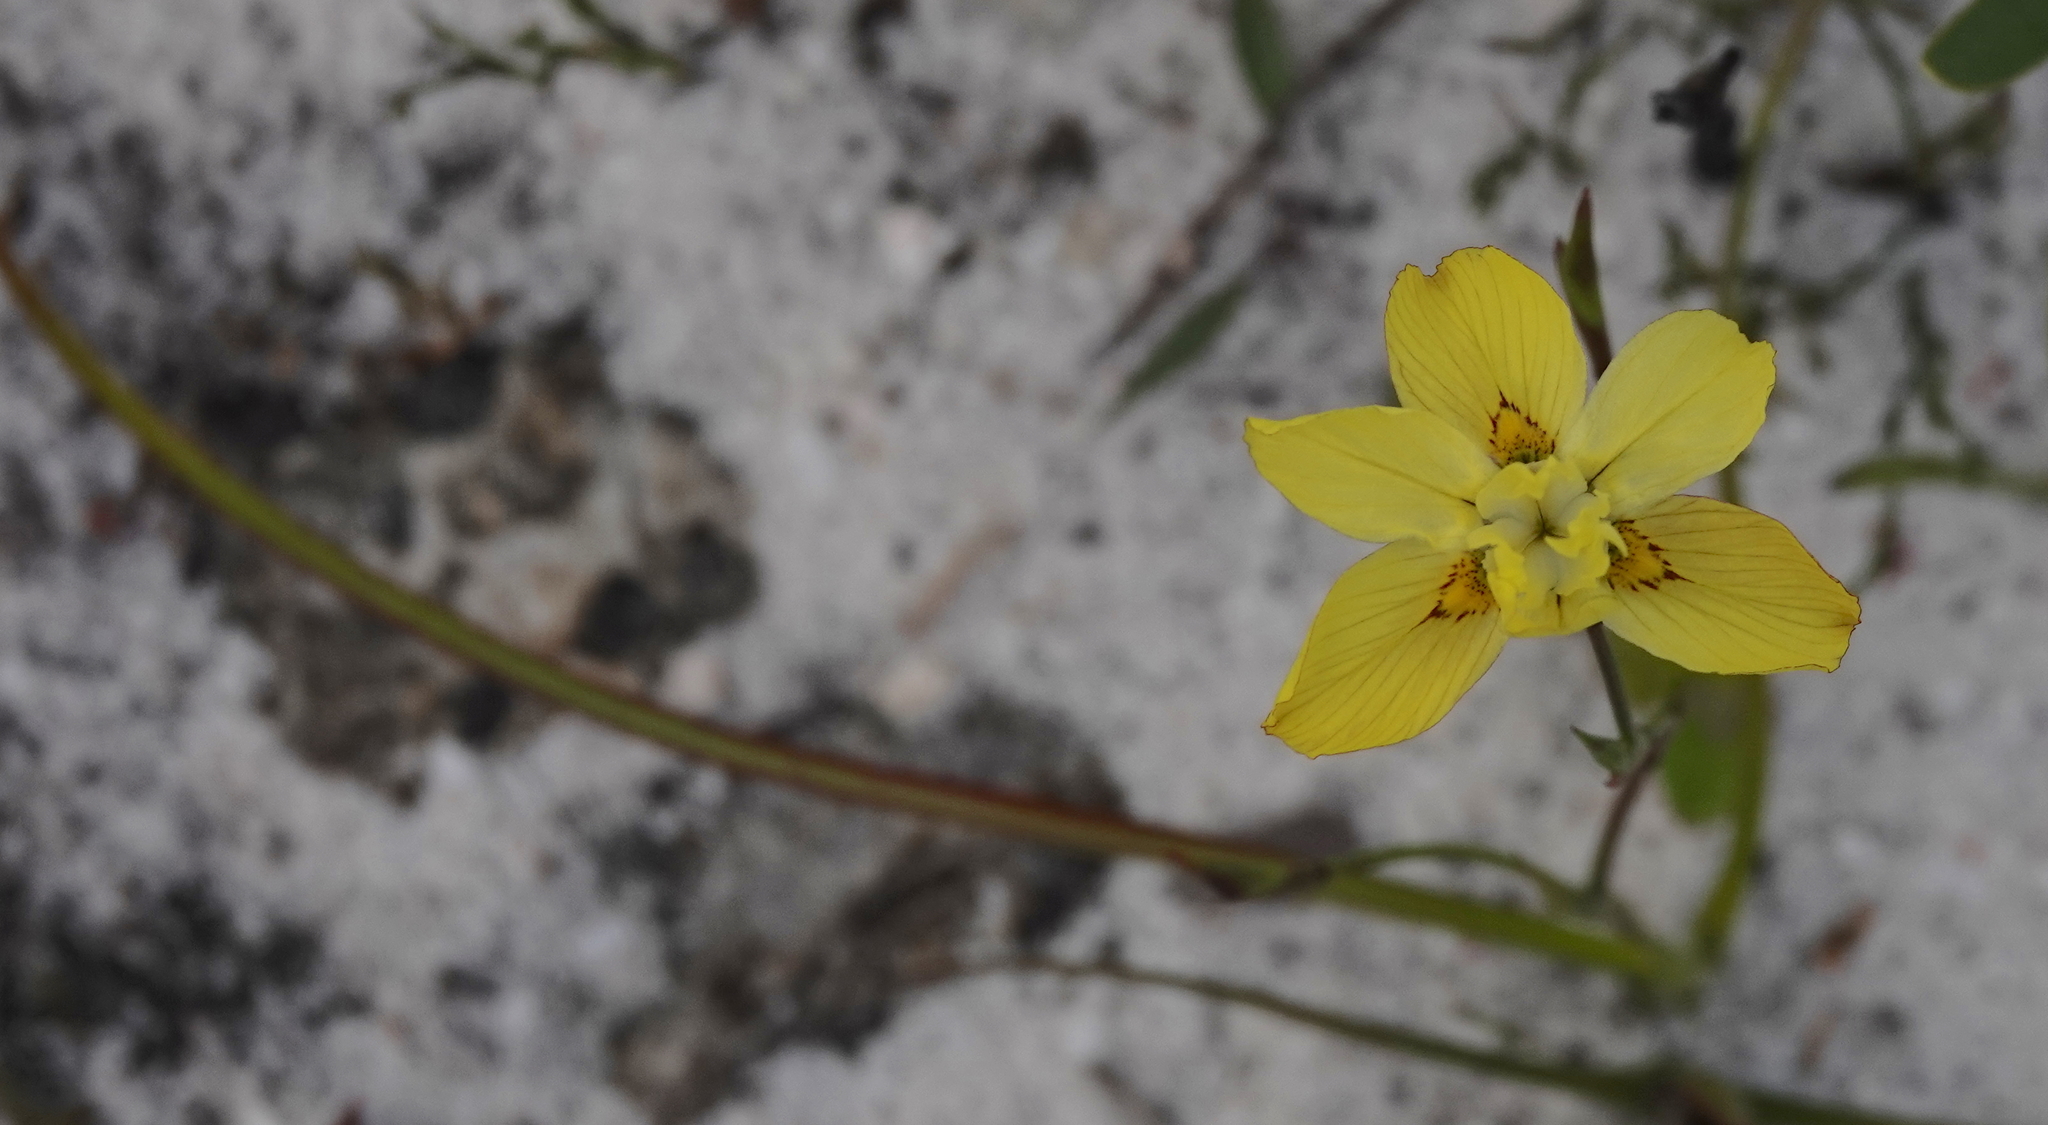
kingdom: Plantae
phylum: Tracheophyta
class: Liliopsida
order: Asparagales
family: Iridaceae
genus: Moraea
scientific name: Moraea gawleri
